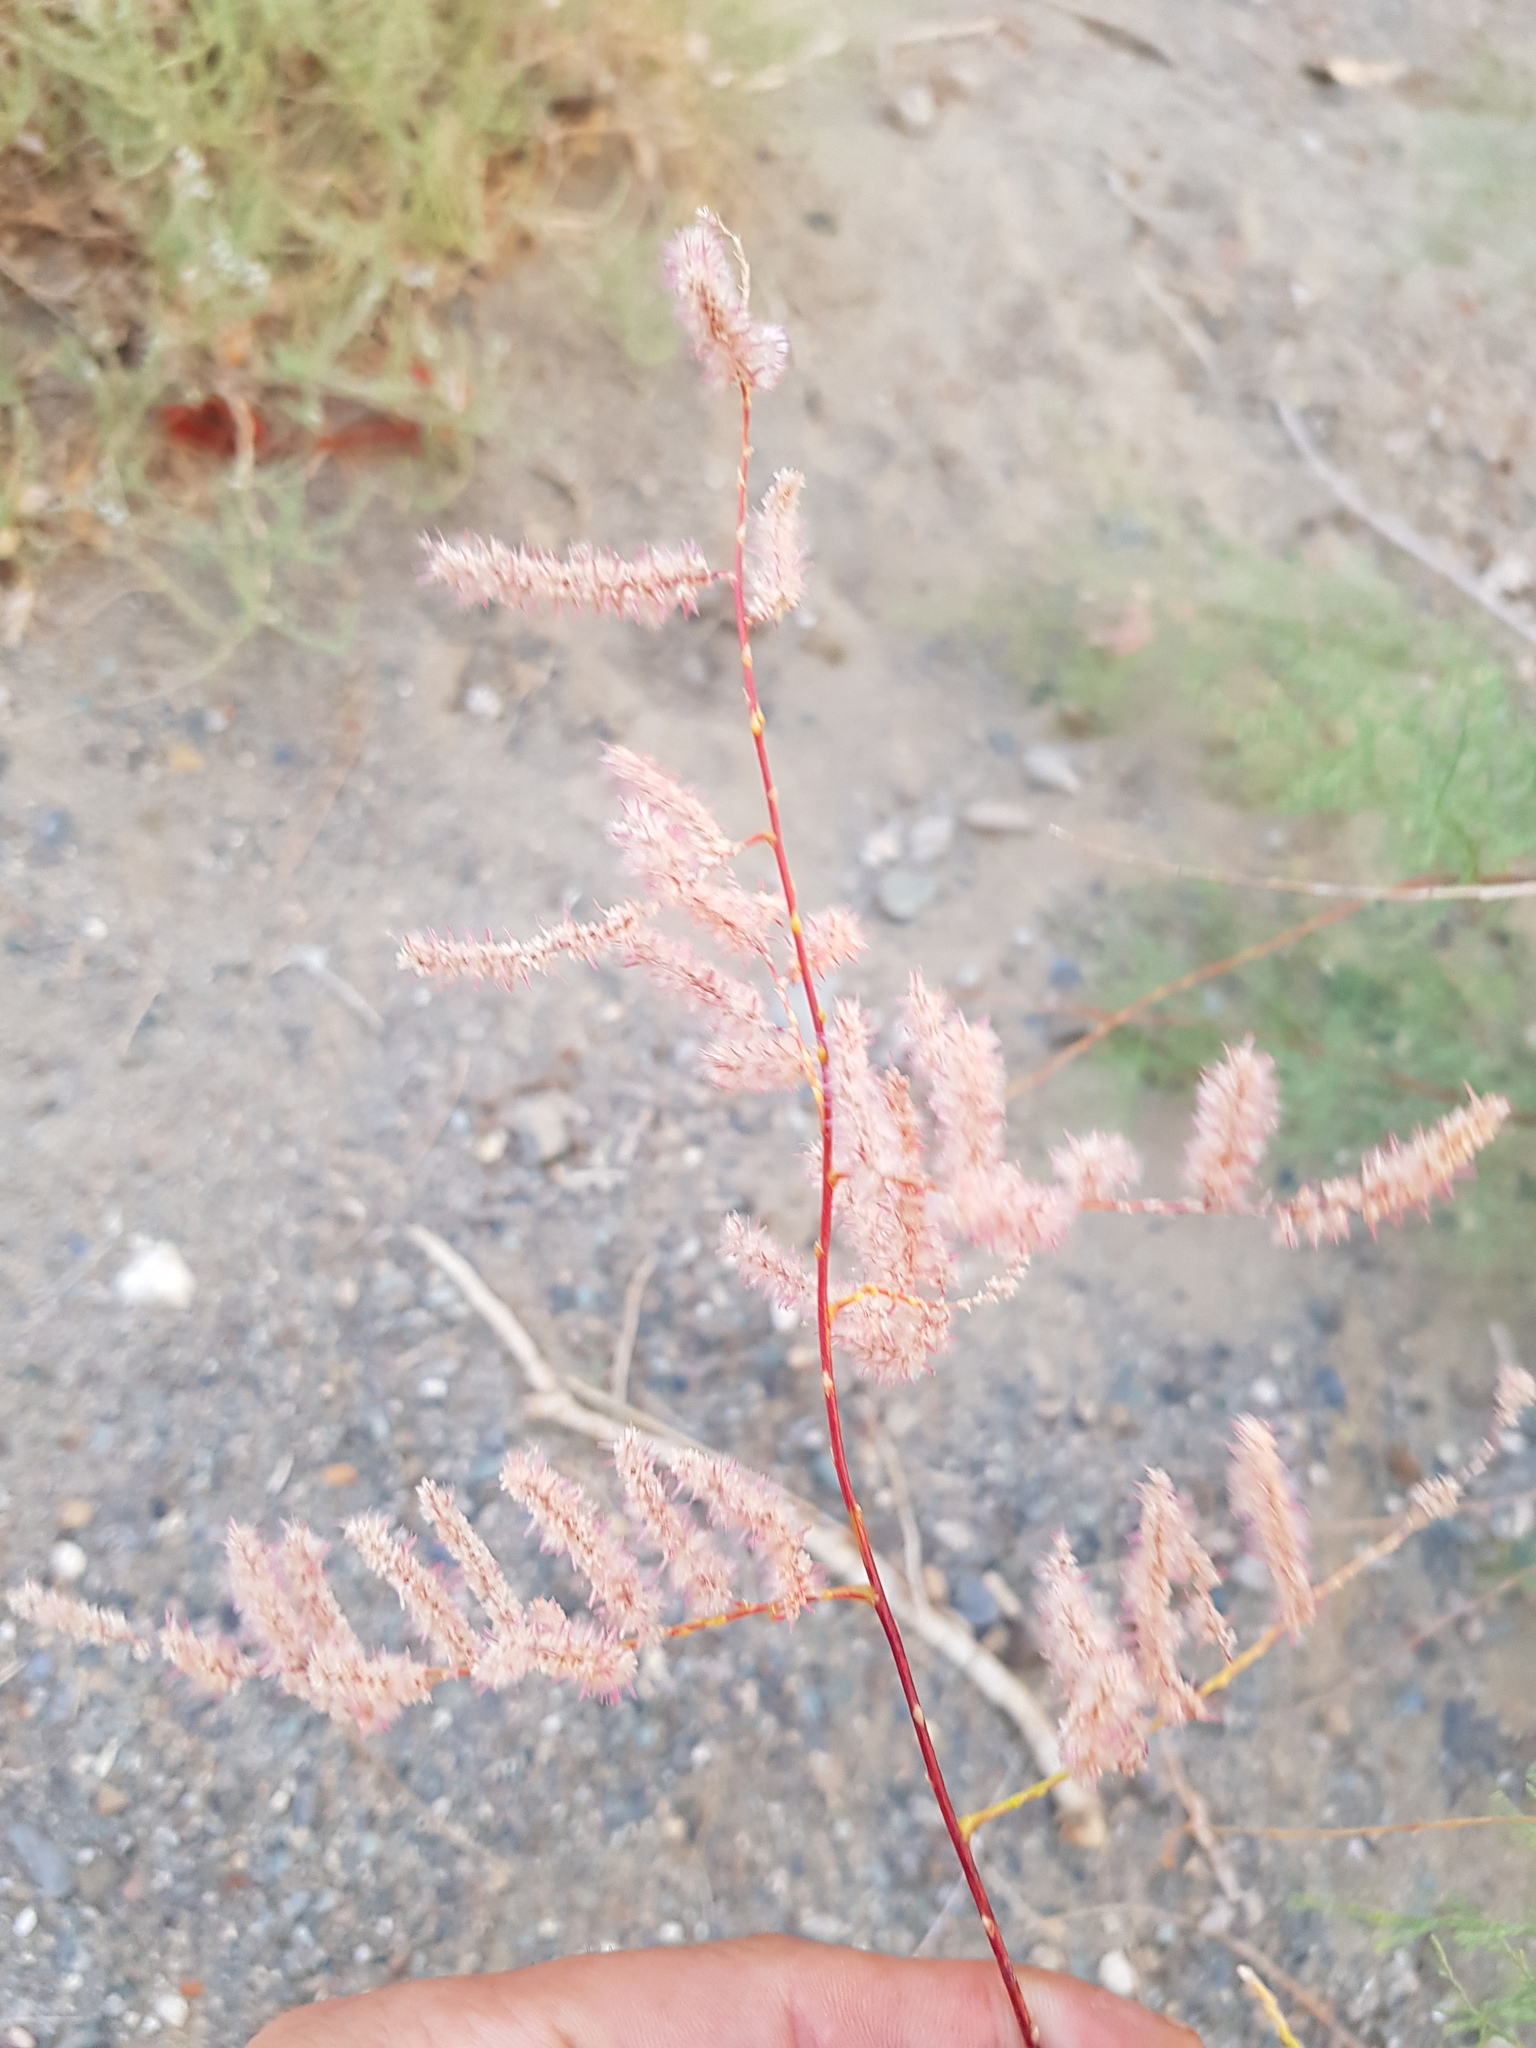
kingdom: Plantae
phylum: Tracheophyta
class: Magnoliopsida
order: Caryophyllales
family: Tamaricaceae
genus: Tamarix
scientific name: Tamarix karelinii
